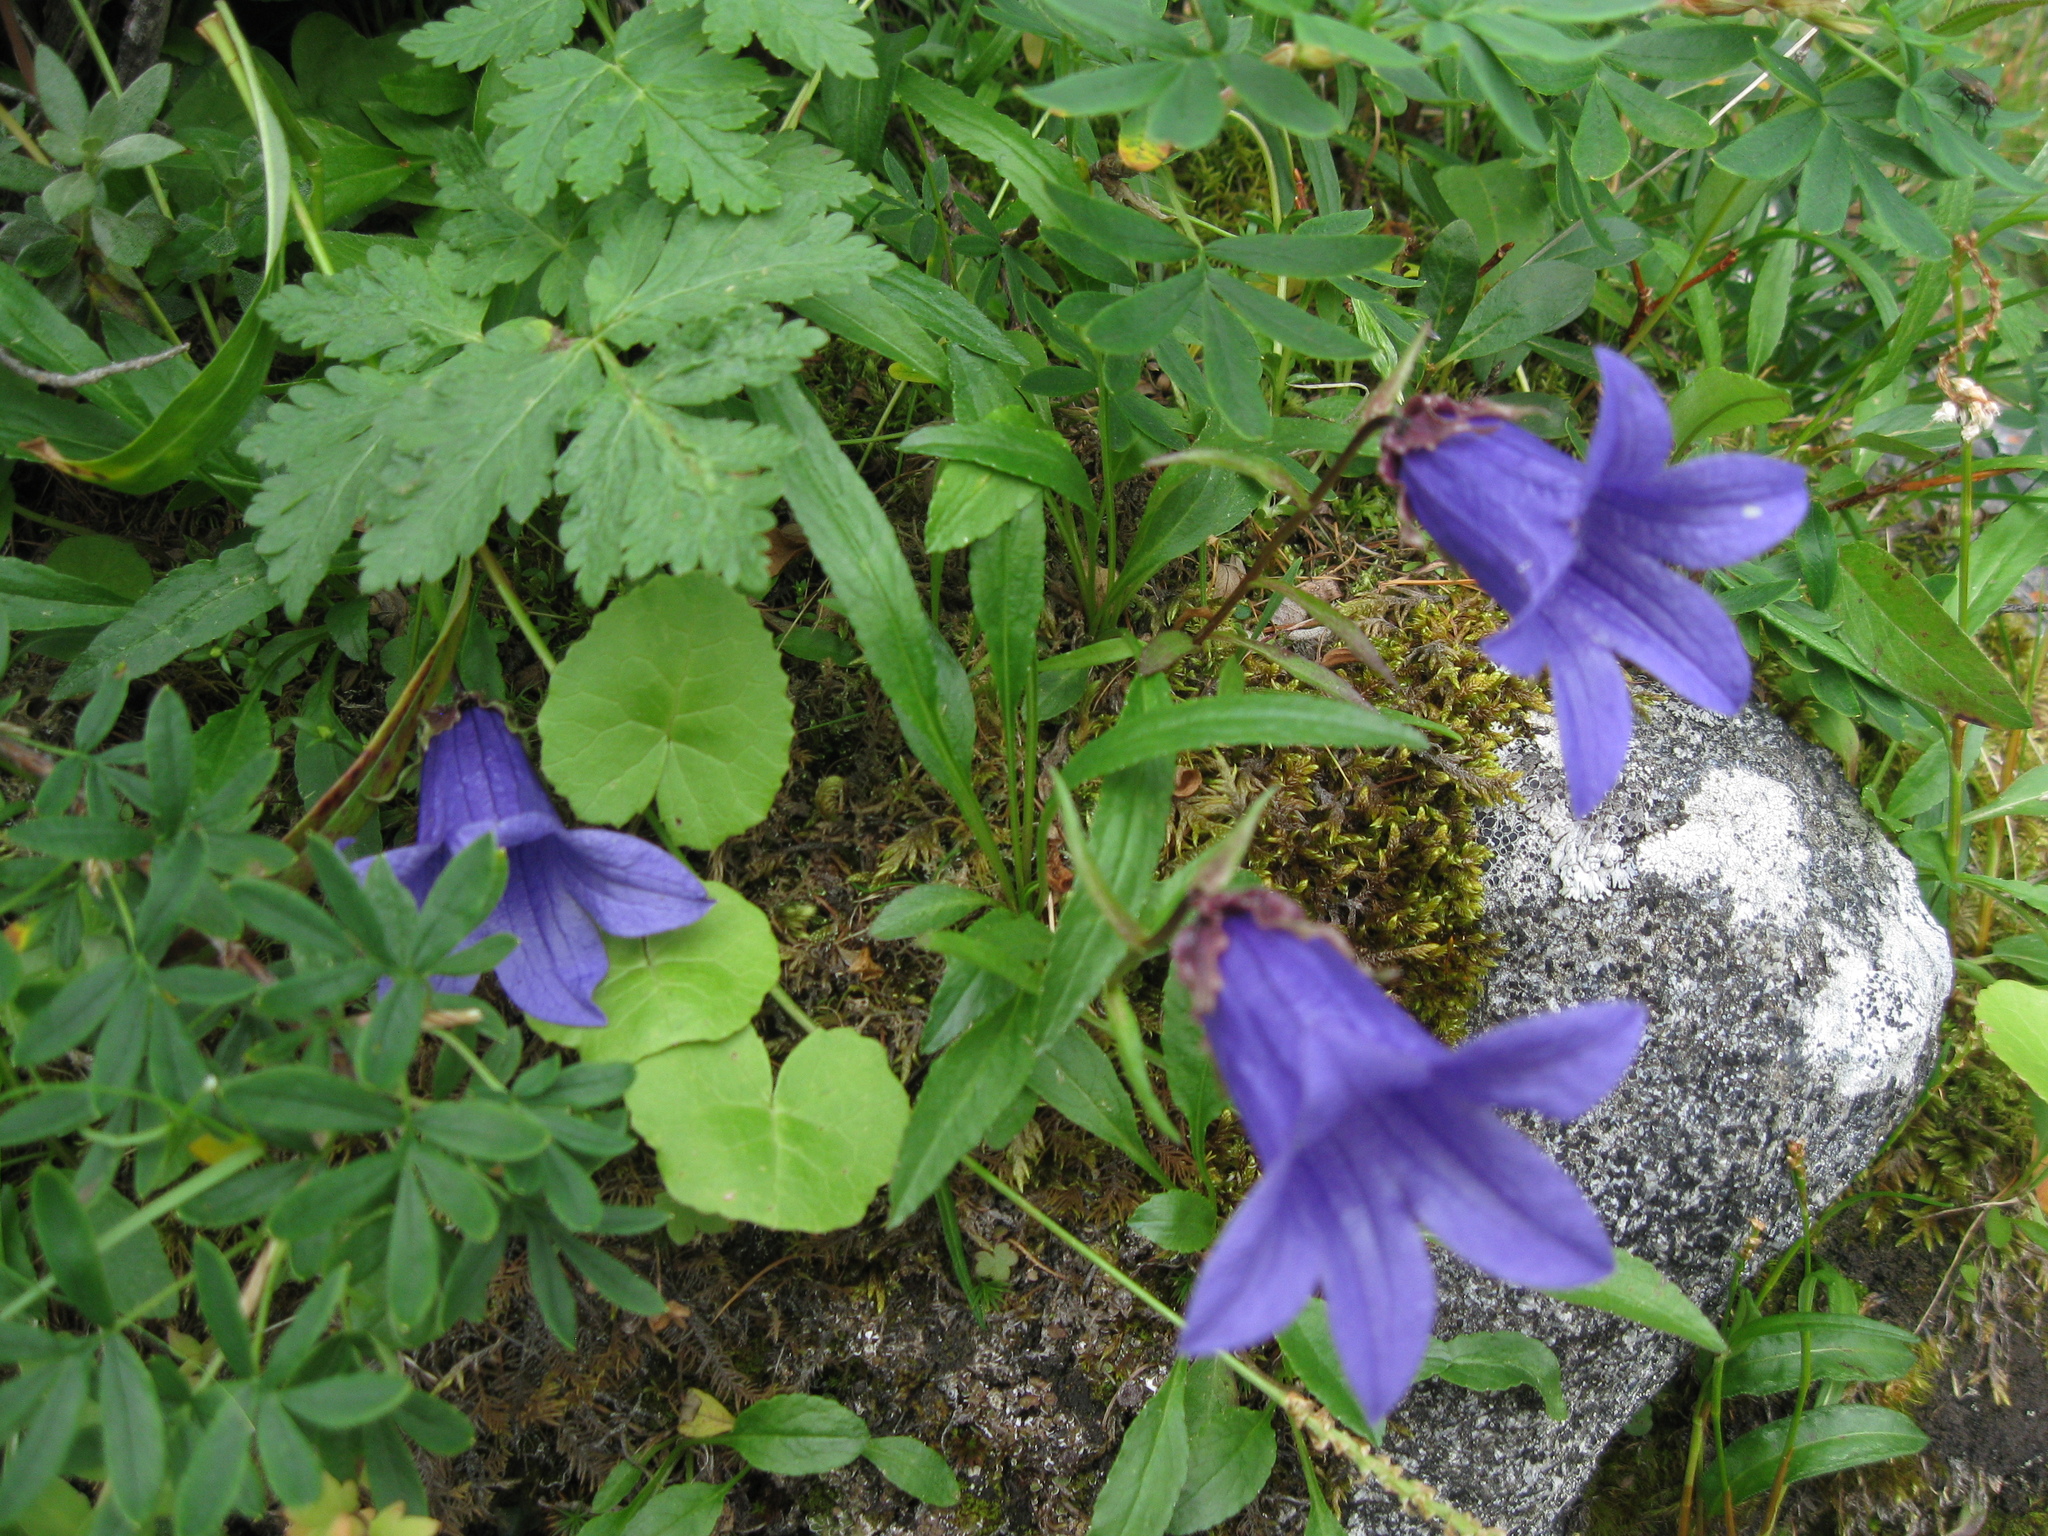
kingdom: Plantae
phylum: Tracheophyta
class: Magnoliopsida
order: Asterales
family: Campanulaceae
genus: Campanula
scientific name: Campanula dasyantha
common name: Hairyflower bellflower
